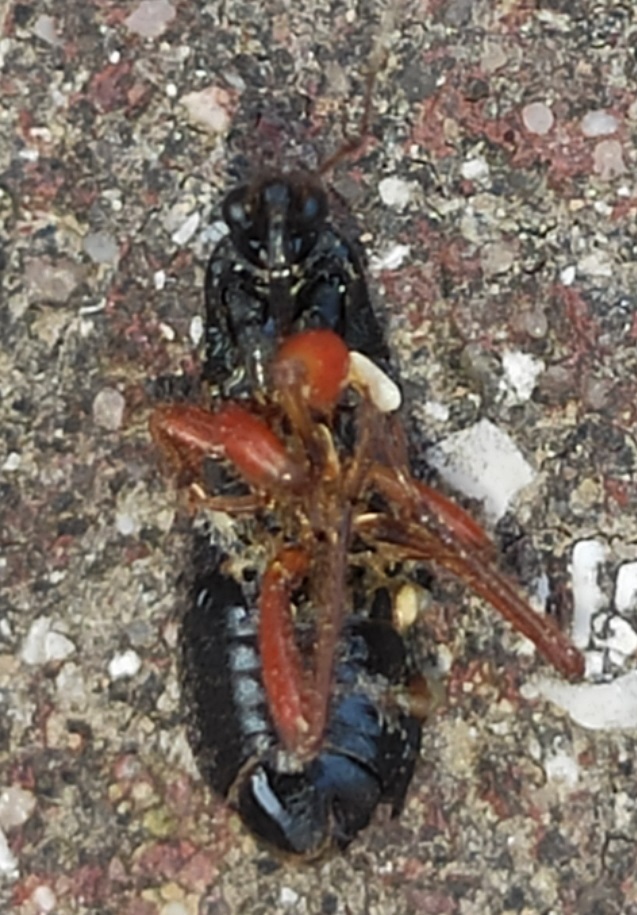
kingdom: Animalia
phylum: Arthropoda
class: Insecta
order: Hemiptera
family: Nabidae
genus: Prostemma
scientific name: Prostemma guttula
